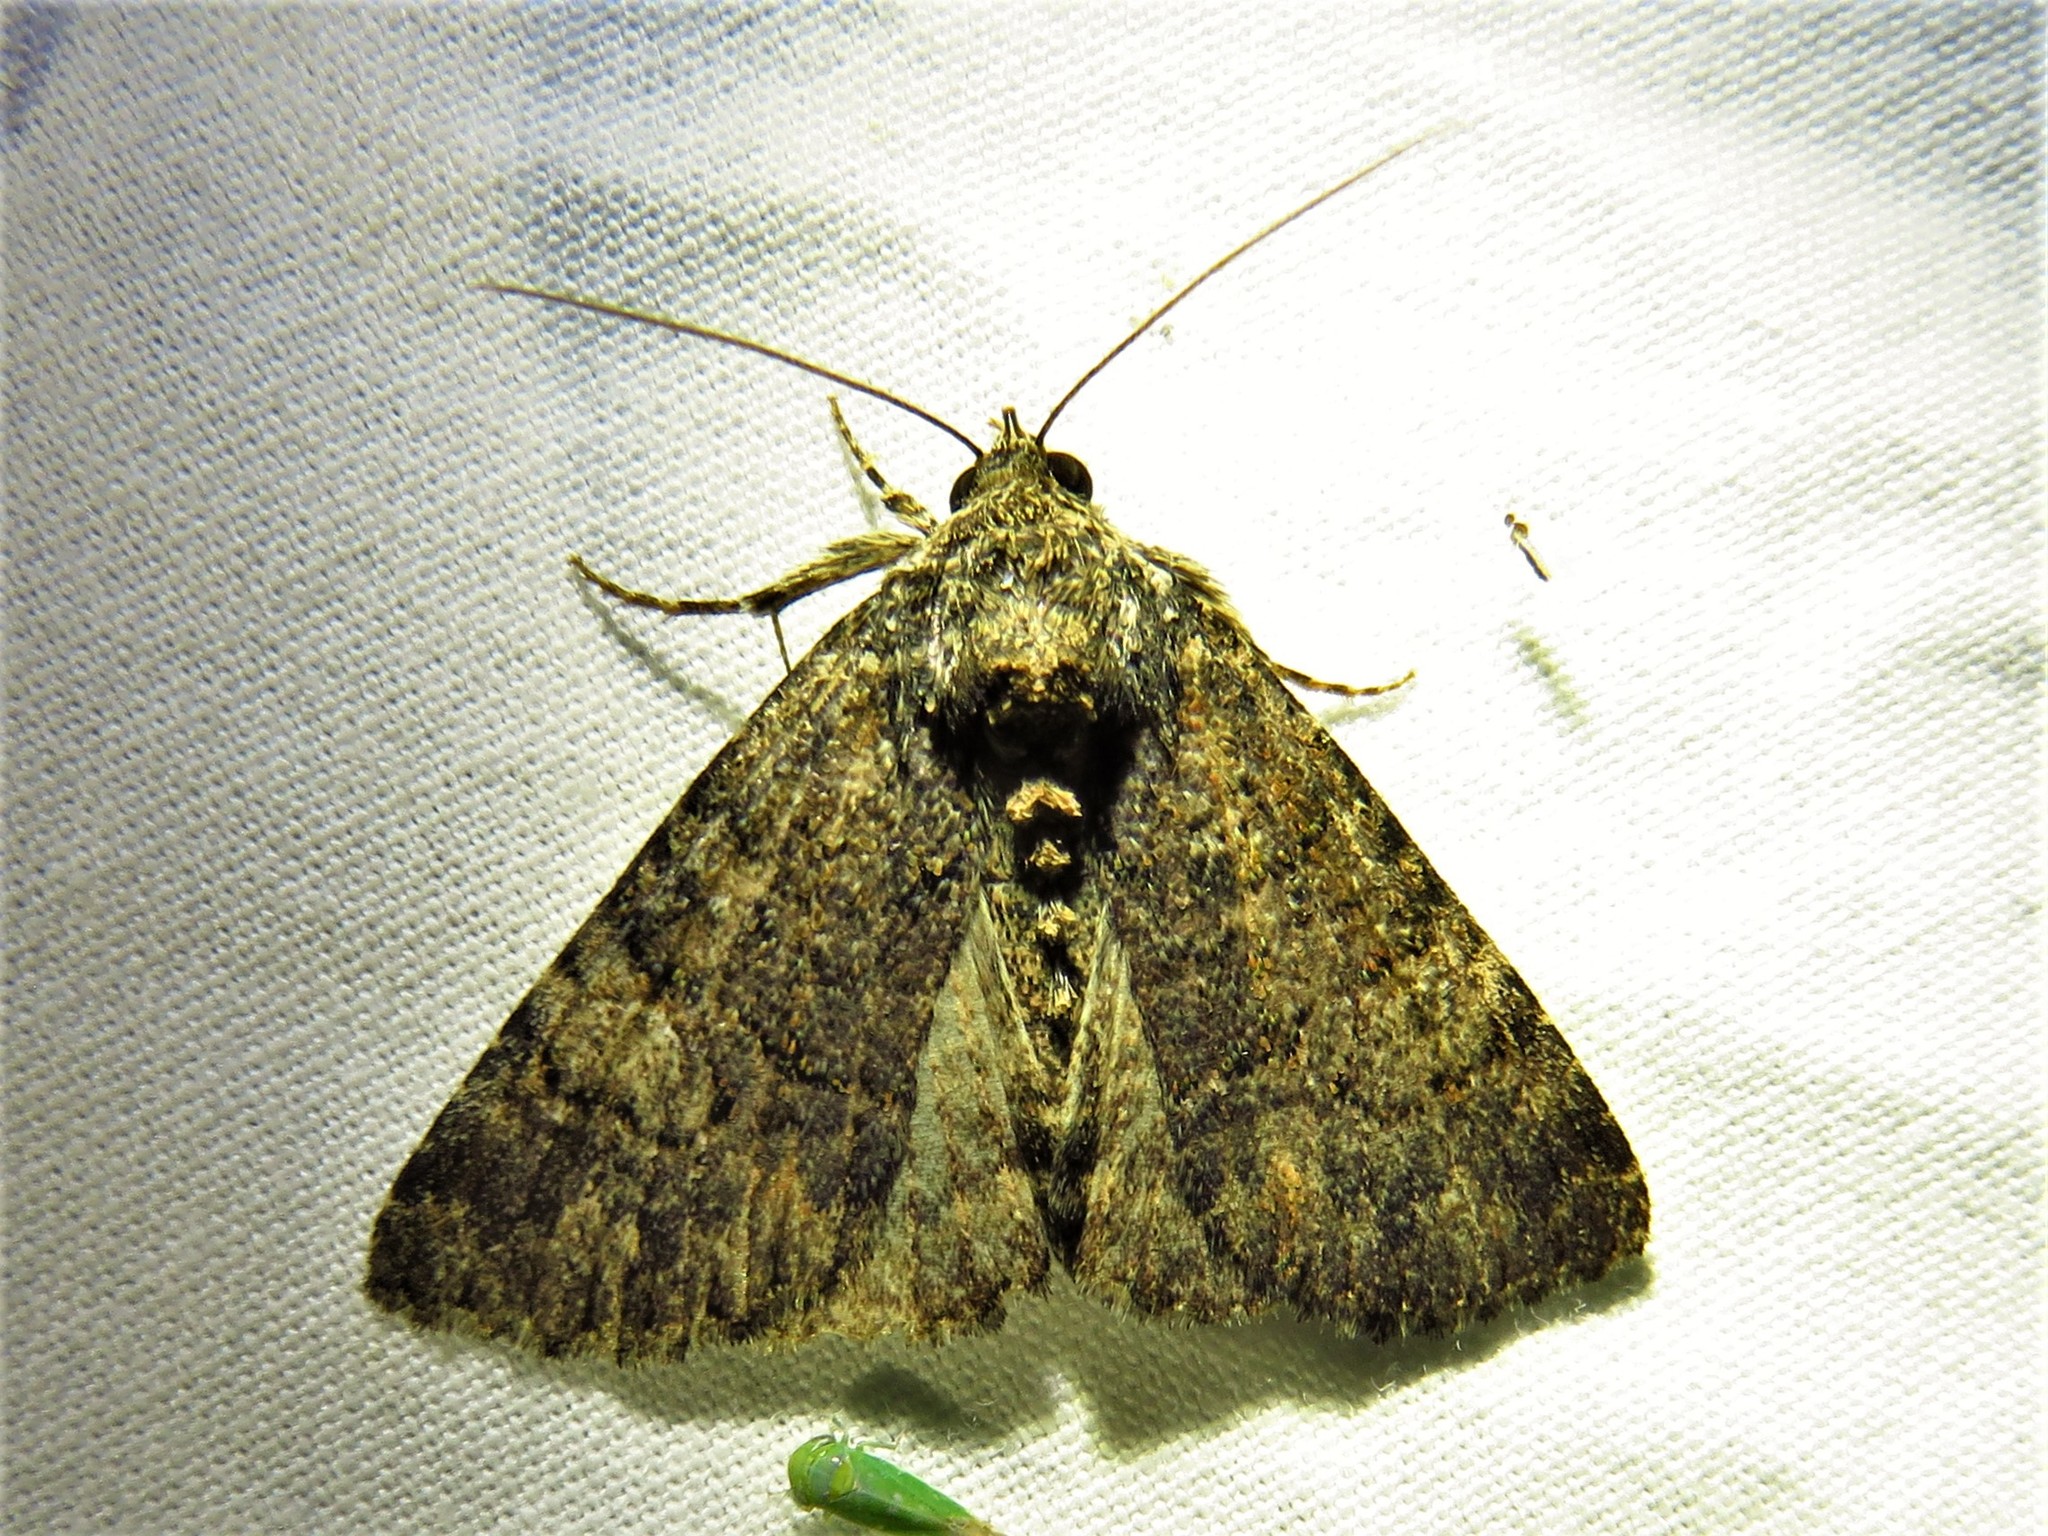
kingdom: Animalia
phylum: Arthropoda
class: Insecta
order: Lepidoptera
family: Erebidae
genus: Elousa
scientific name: Elousa mima
